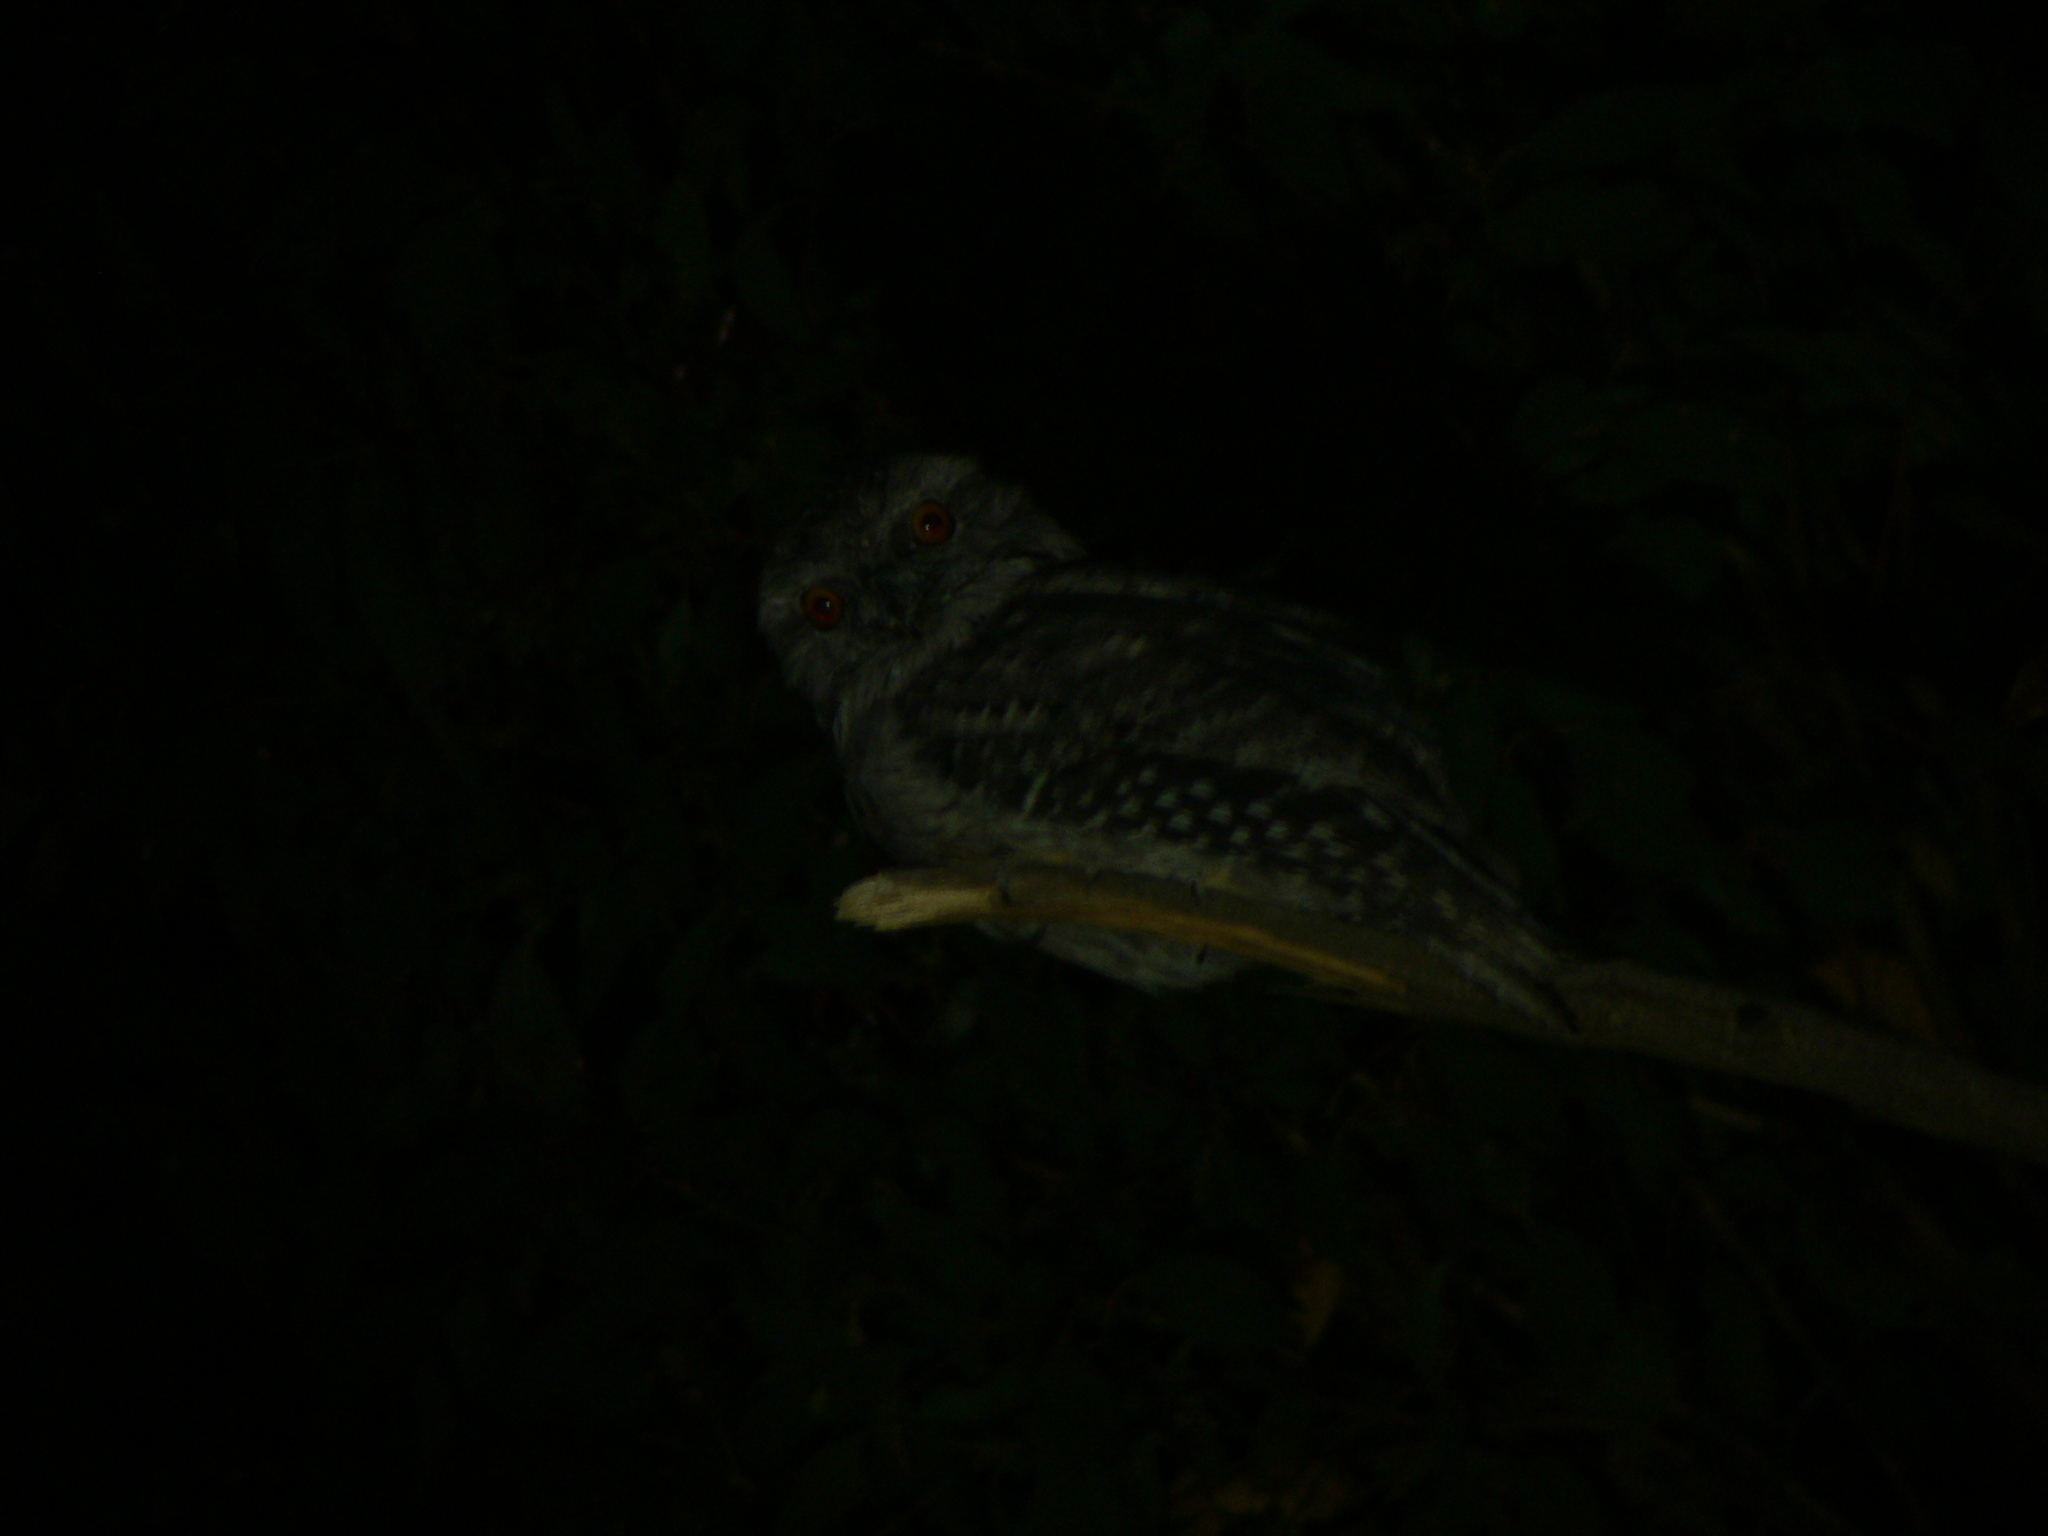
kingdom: Animalia
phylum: Chordata
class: Aves
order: Caprimulgiformes
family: Podargidae
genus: Podargus
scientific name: Podargus strigoides
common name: Tawny frogmouth
